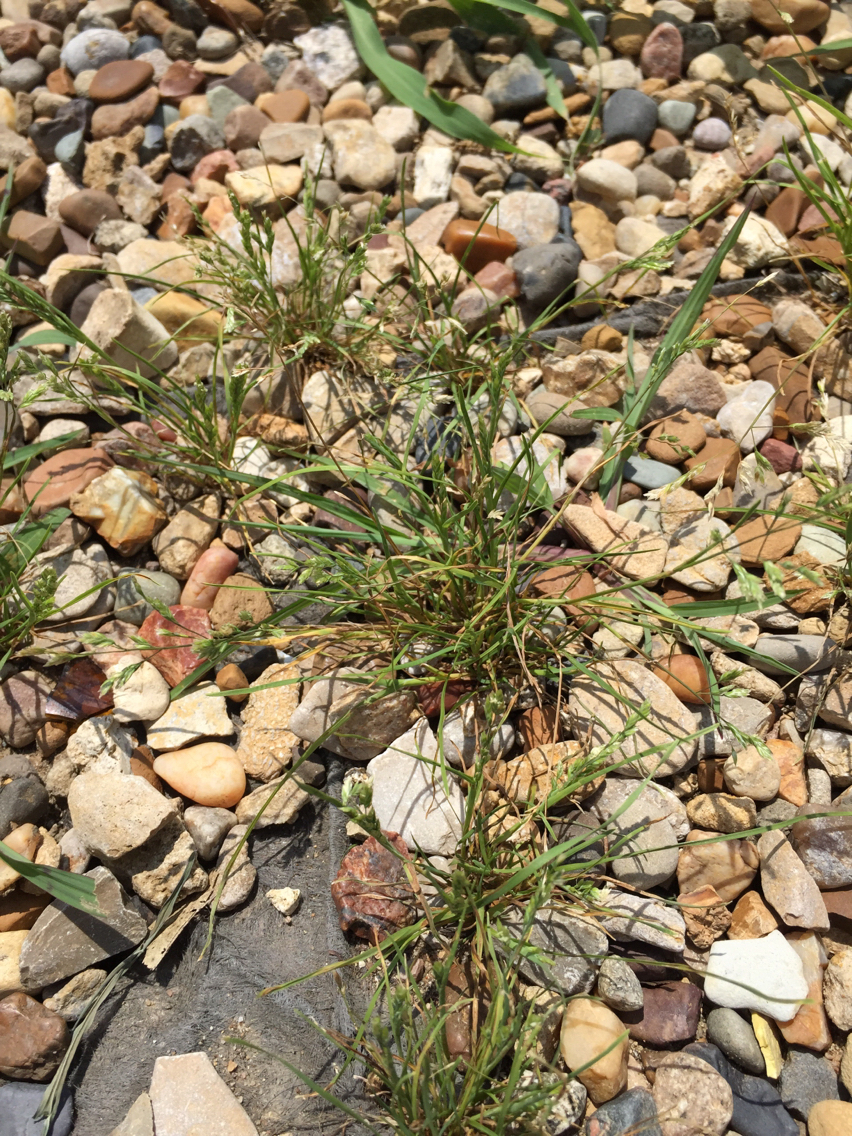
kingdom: Plantae
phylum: Tracheophyta
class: Liliopsida
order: Poales
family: Poaceae
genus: Poa
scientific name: Poa annua
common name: Annual bluegrass
